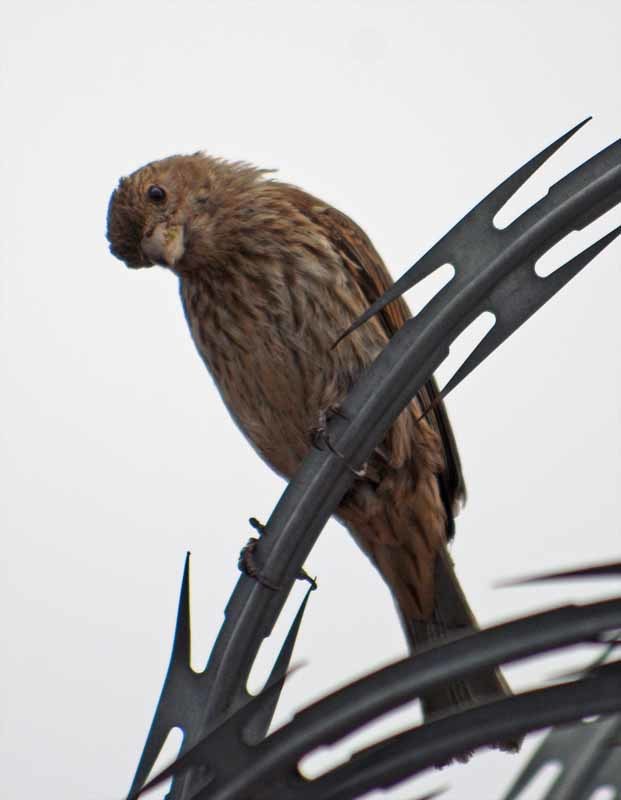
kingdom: Animalia
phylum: Chordata
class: Aves
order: Passeriformes
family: Fringillidae
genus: Haemorhous
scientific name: Haemorhous mexicanus
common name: House finch
